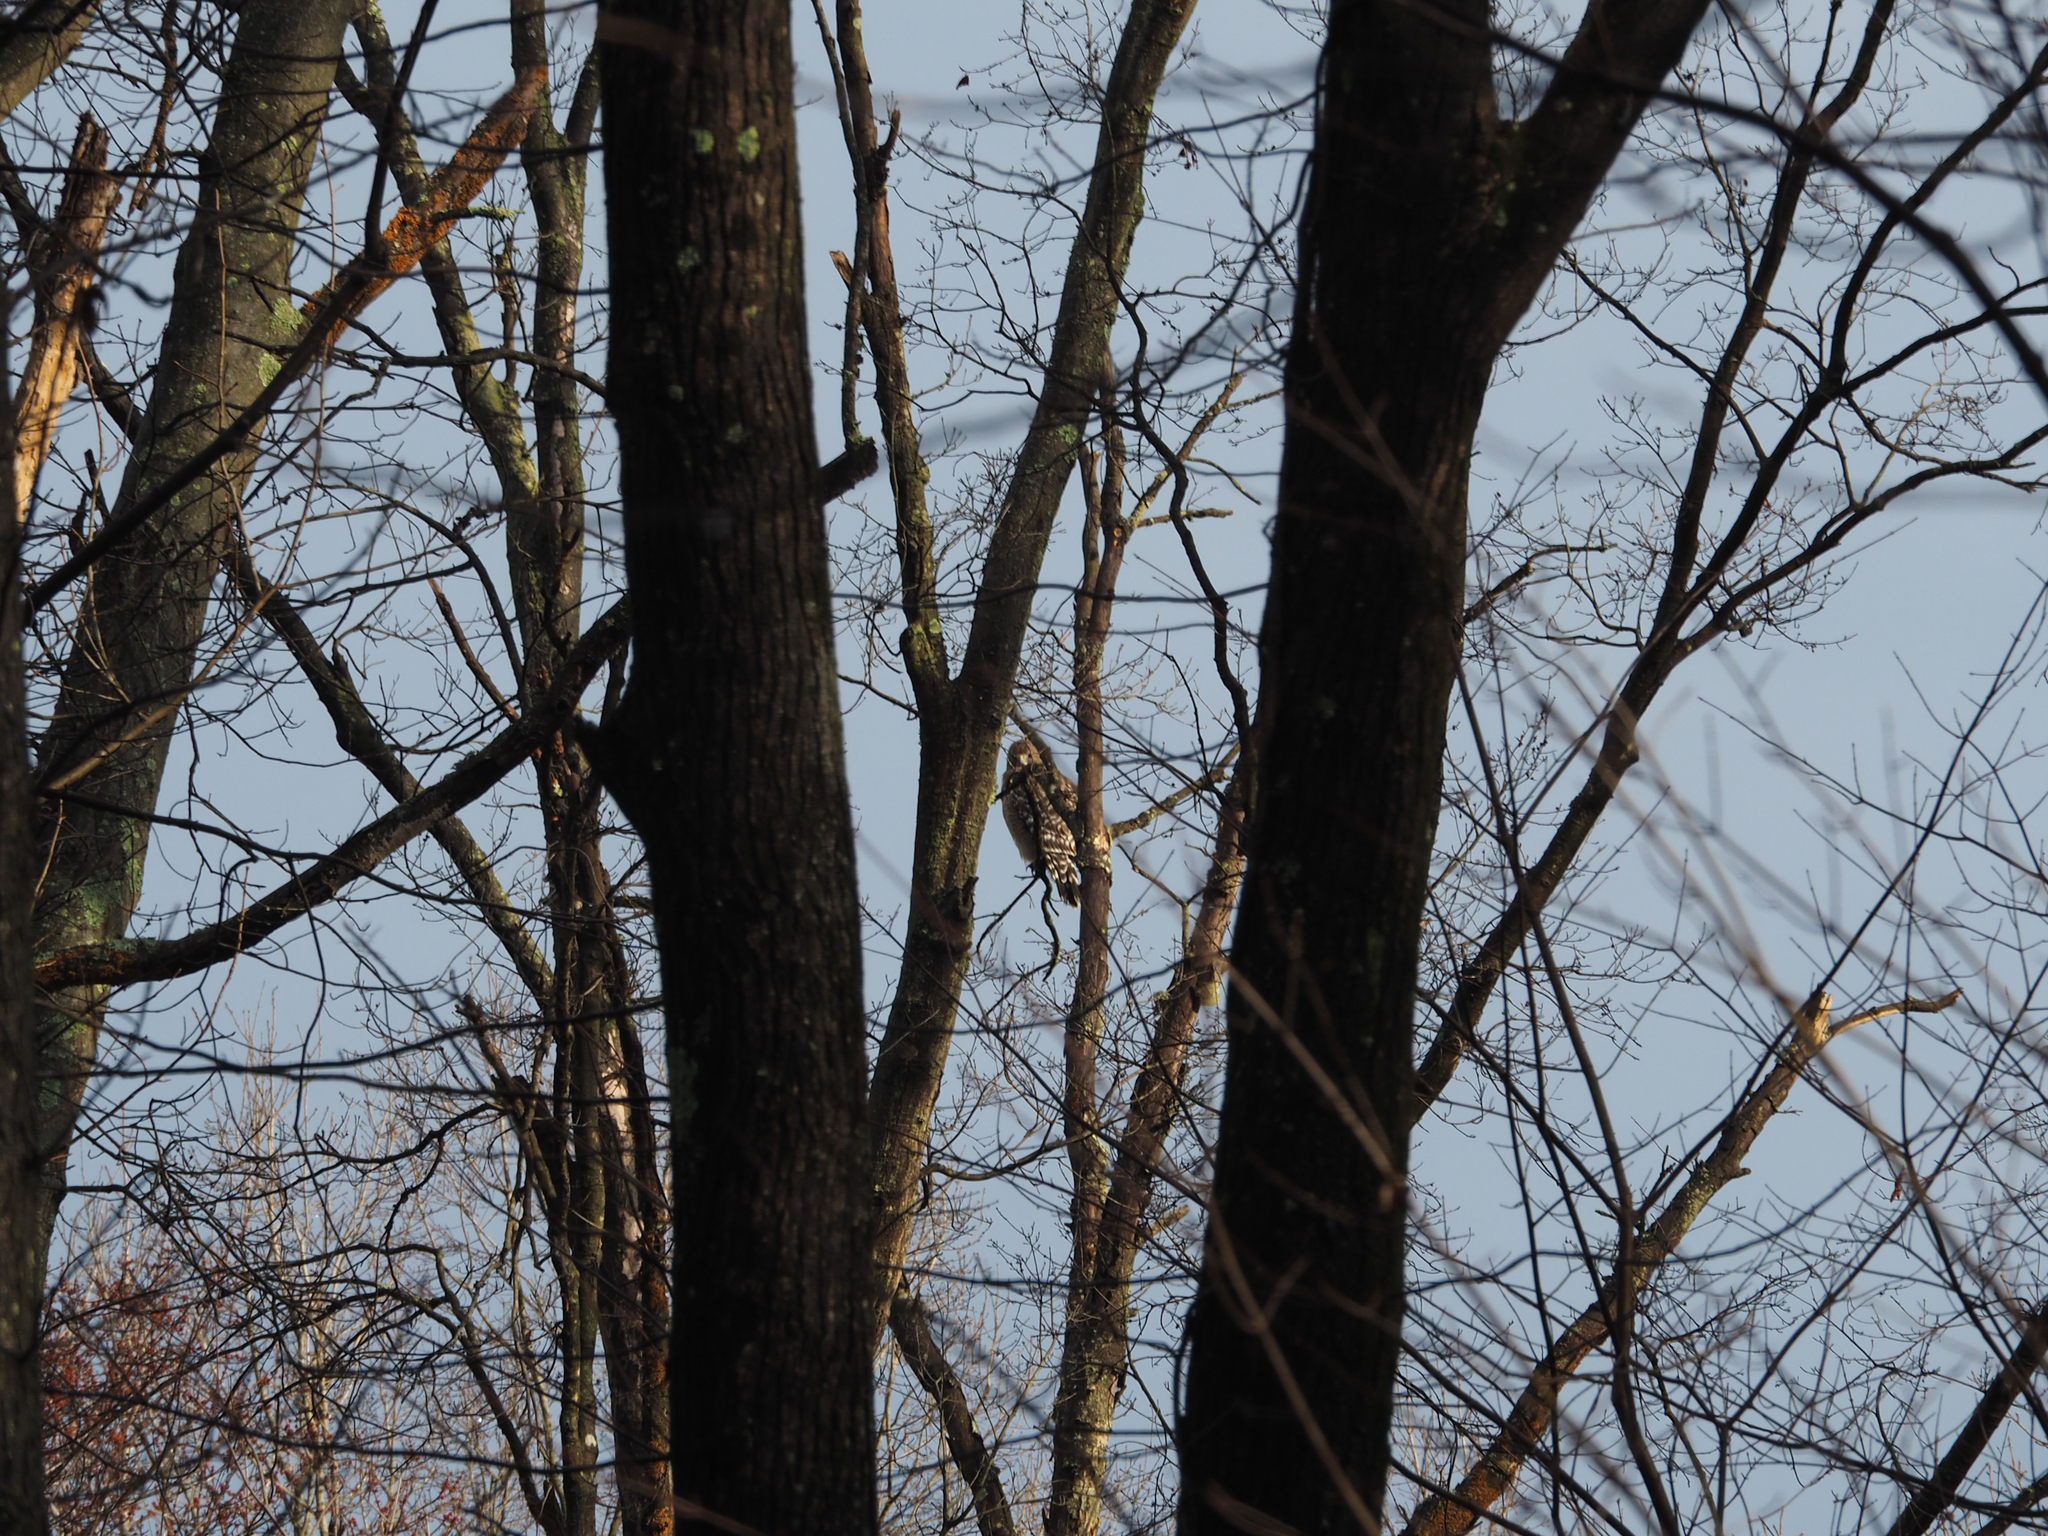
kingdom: Animalia
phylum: Chordata
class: Aves
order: Accipitriformes
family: Accipitridae
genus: Buteo
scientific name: Buteo lineatus
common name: Red-shouldered hawk
